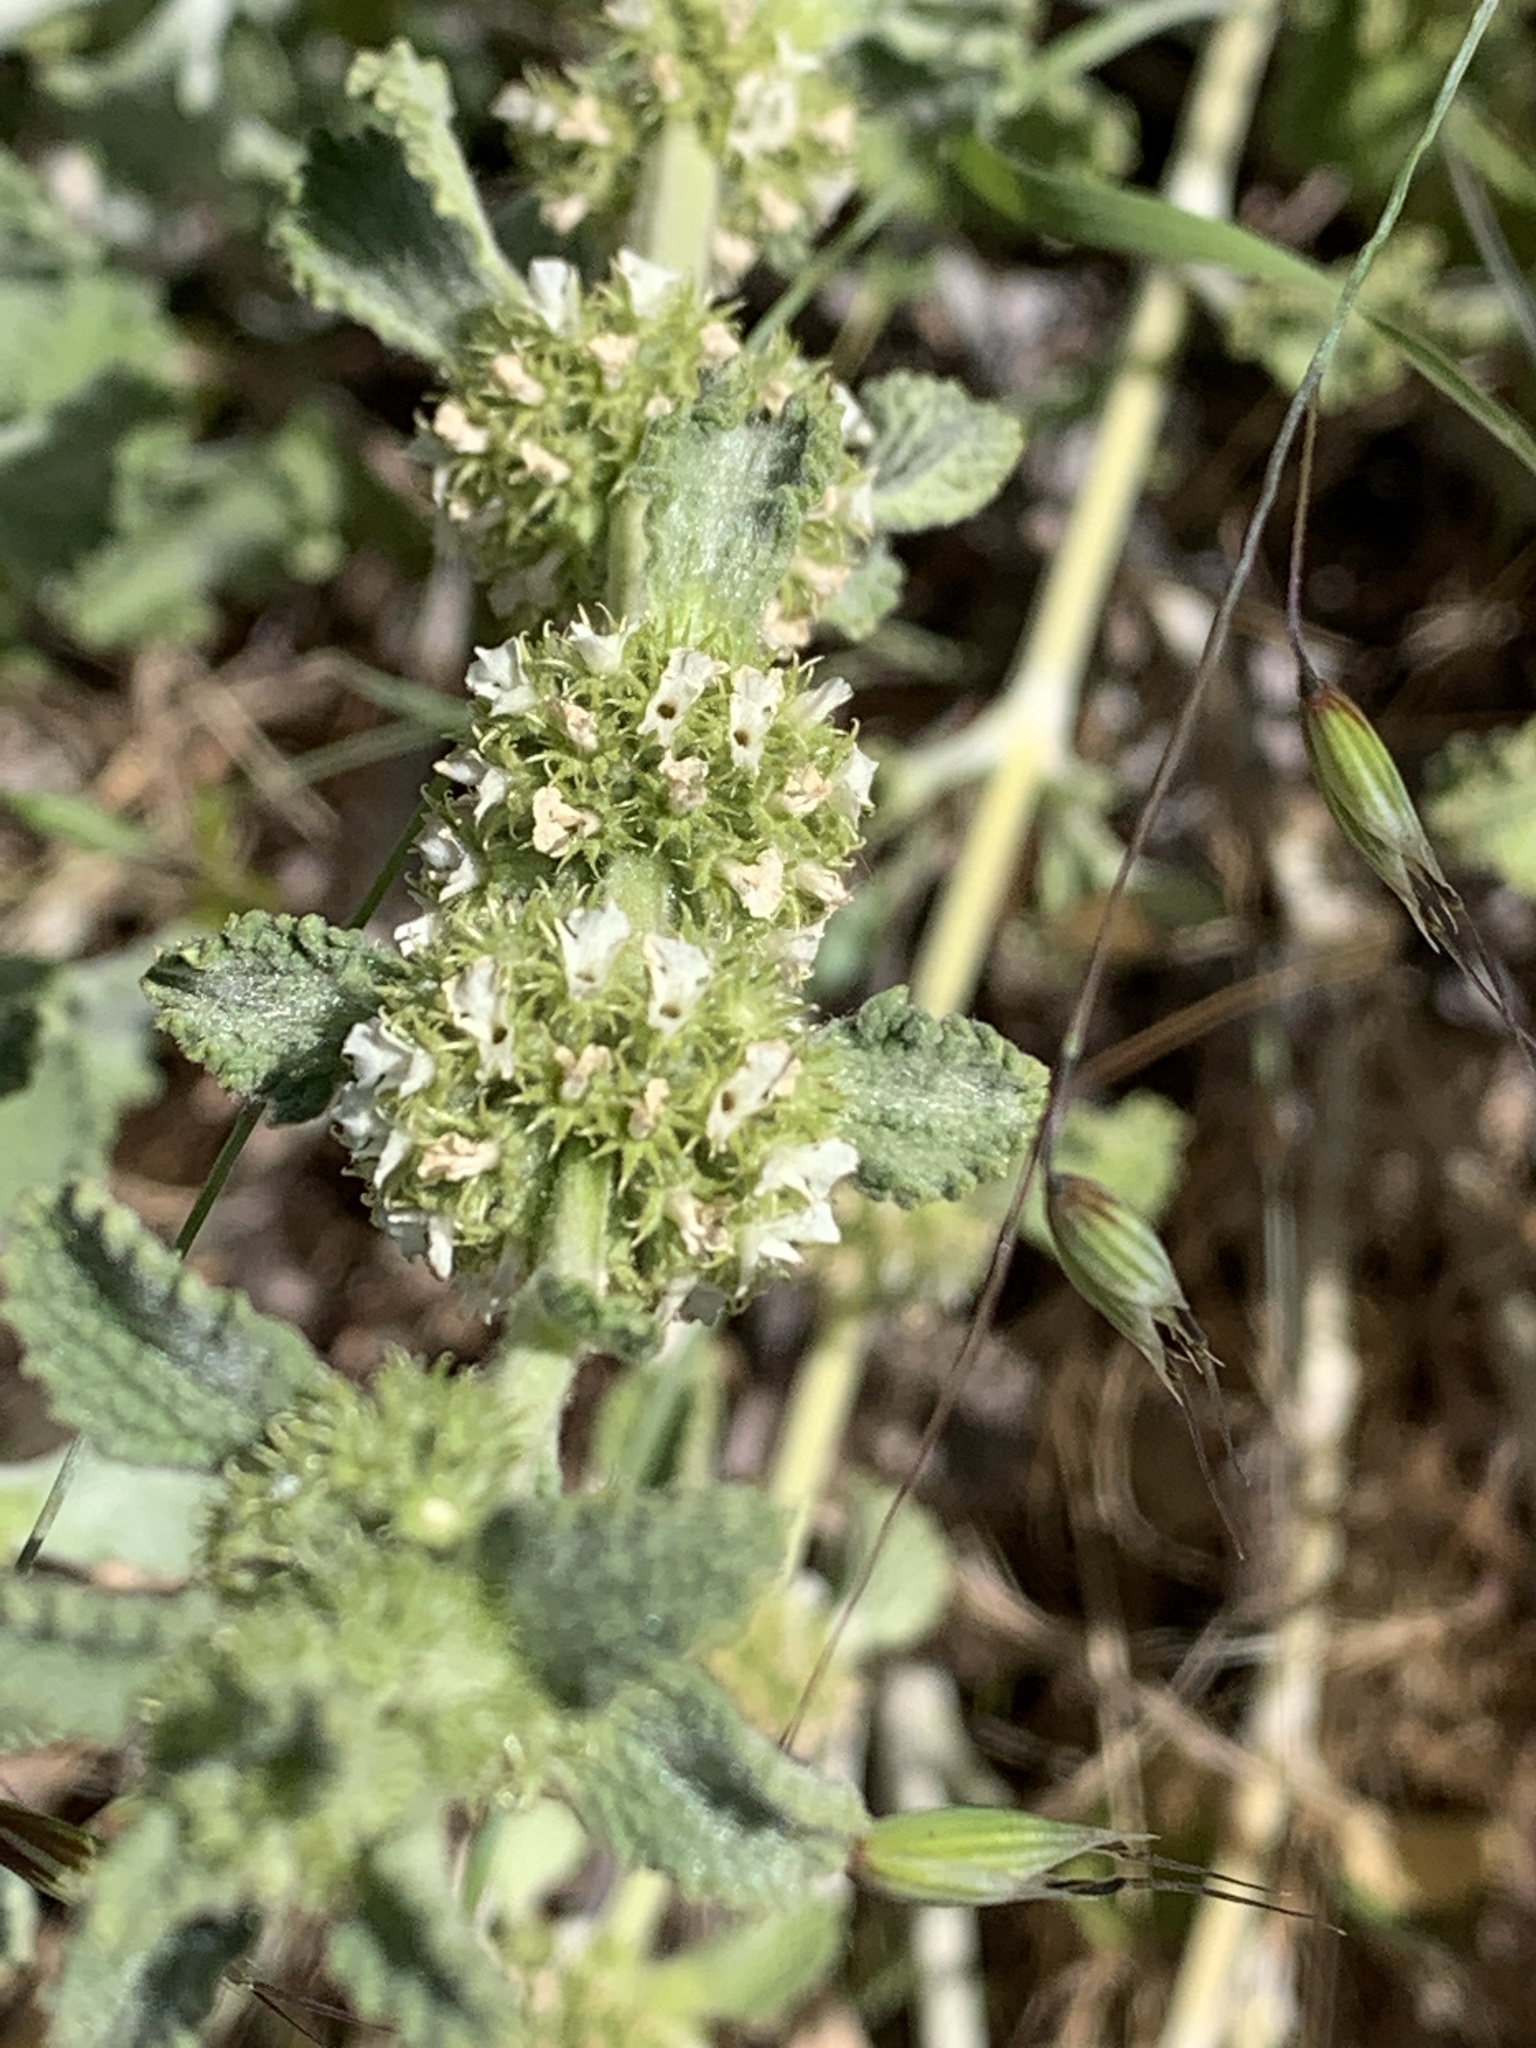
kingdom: Plantae
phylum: Tracheophyta
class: Magnoliopsida
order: Lamiales
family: Lamiaceae
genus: Marrubium
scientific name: Marrubium vulgare
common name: Horehound
